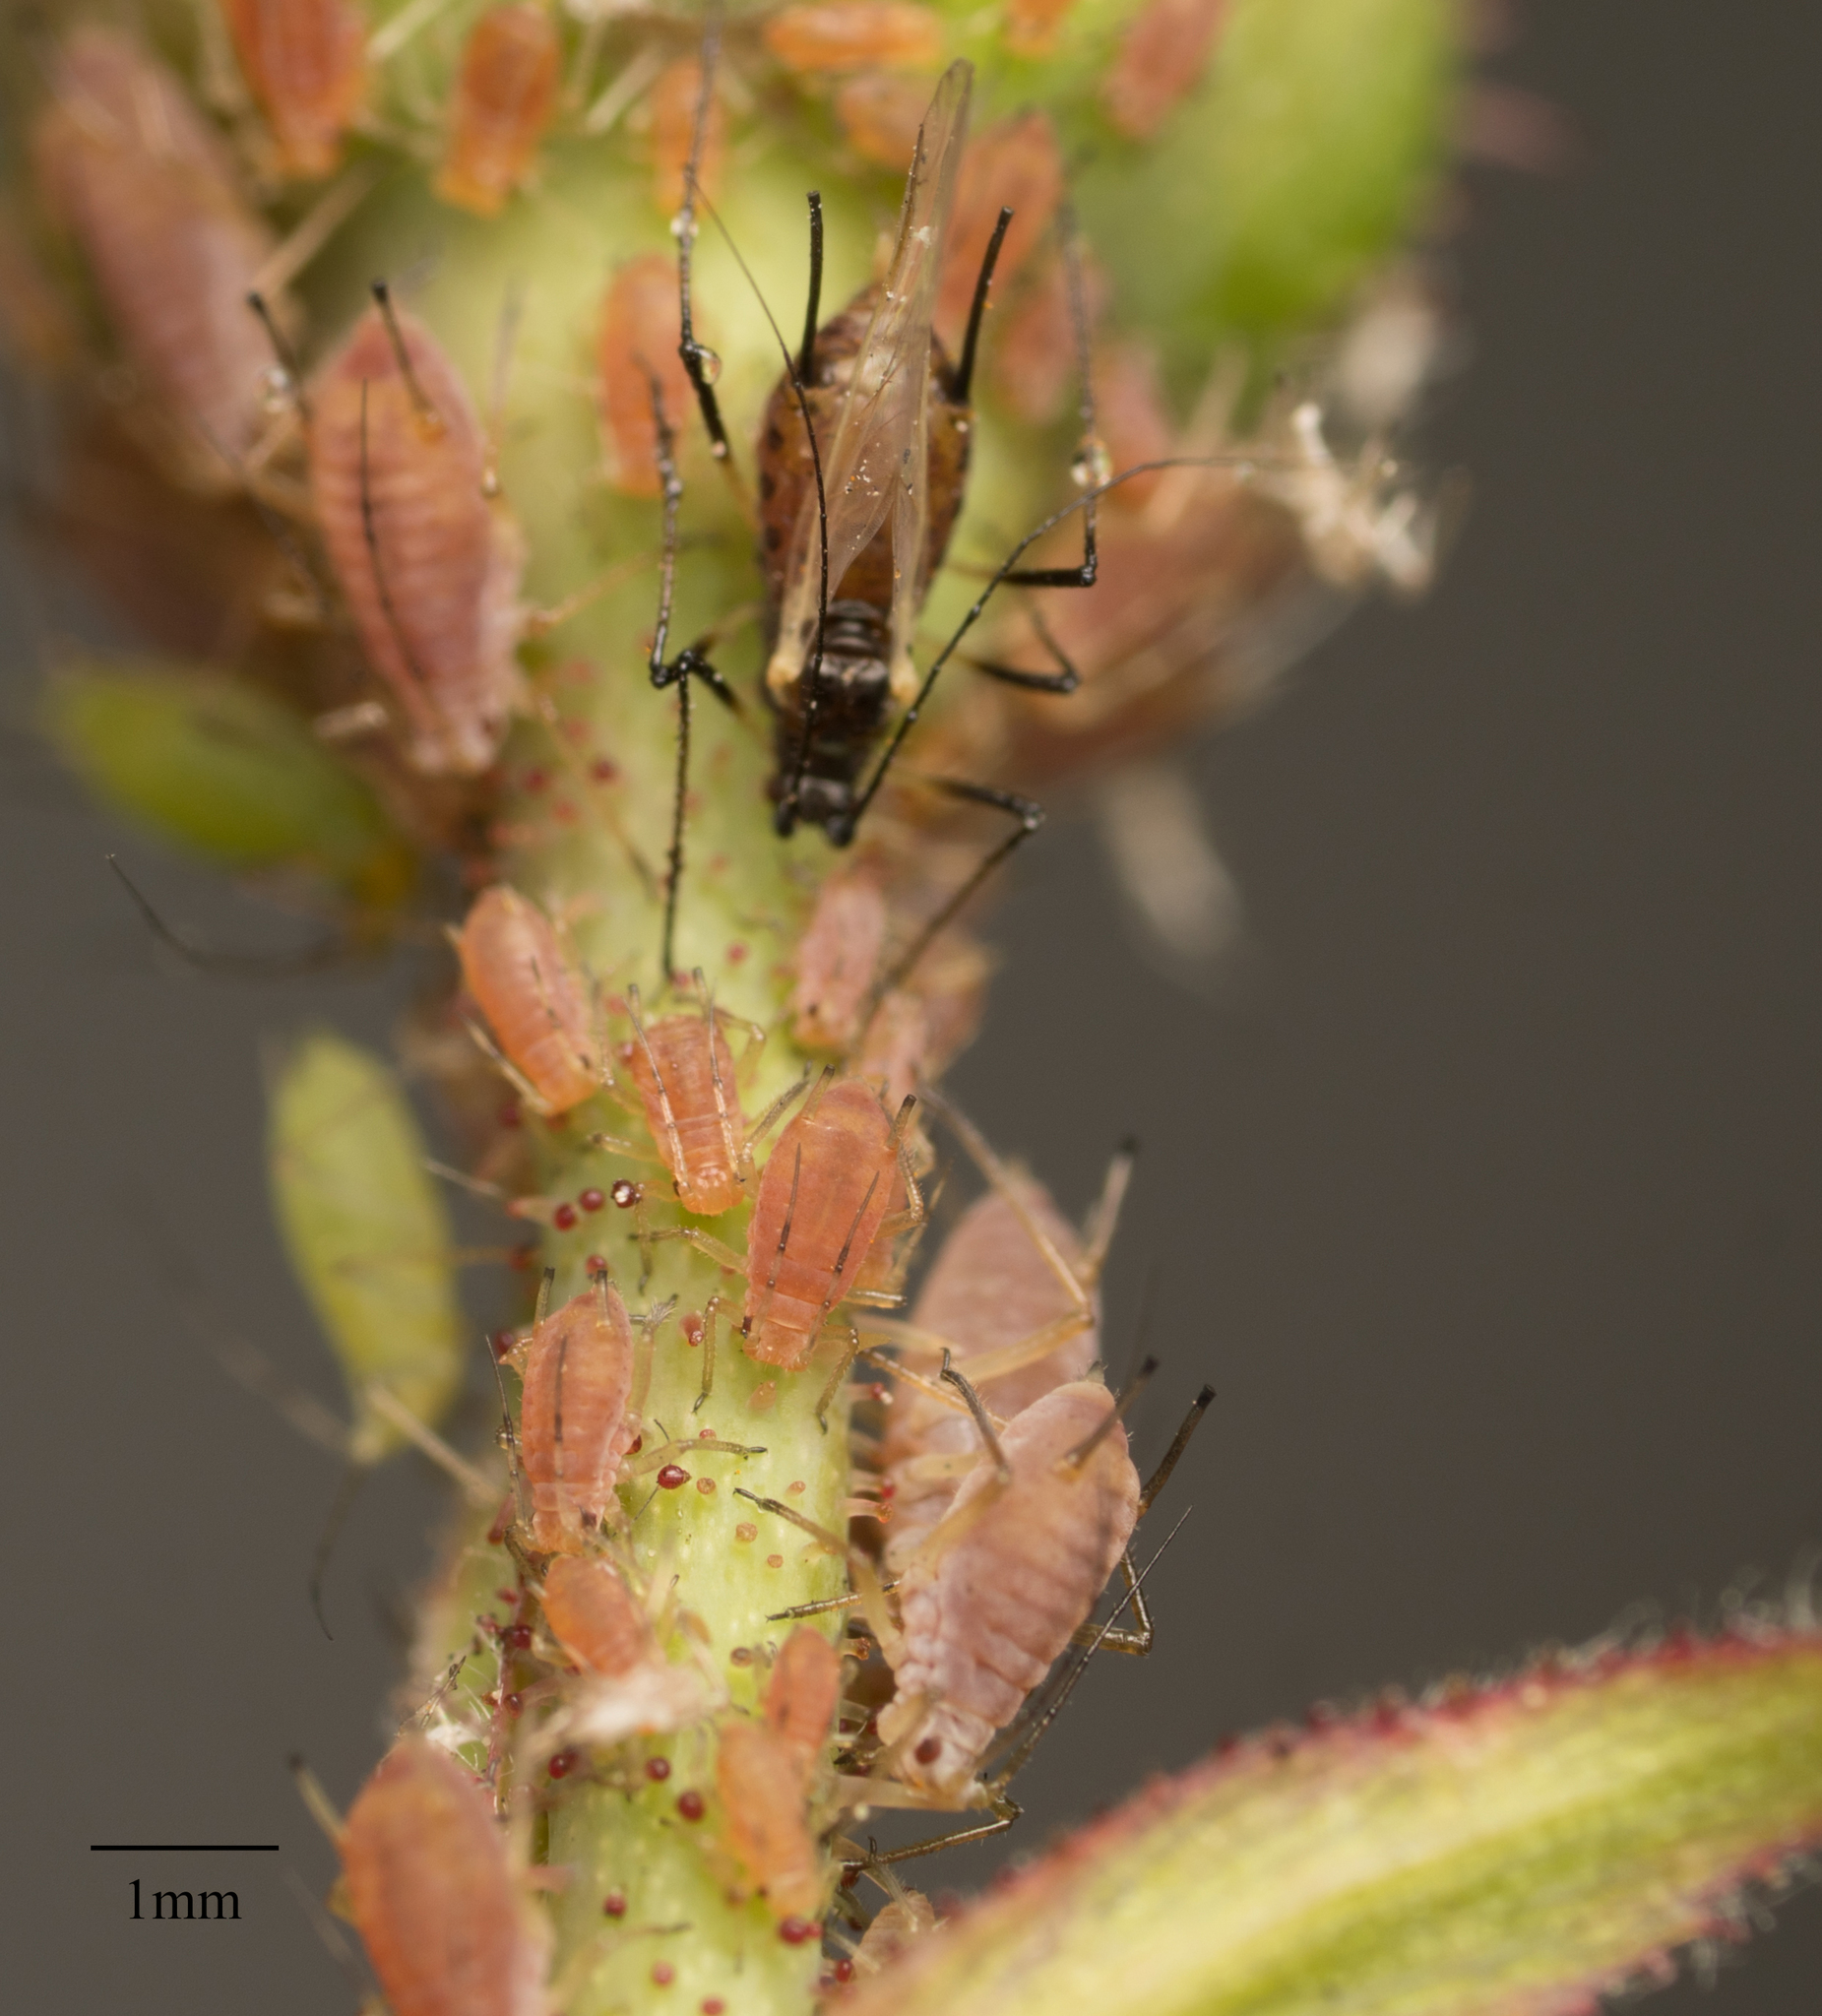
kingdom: Animalia
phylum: Arthropoda
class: Insecta
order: Hemiptera
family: Aphididae
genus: Macrosiphum
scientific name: Macrosiphum rosae
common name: Rose aphid
